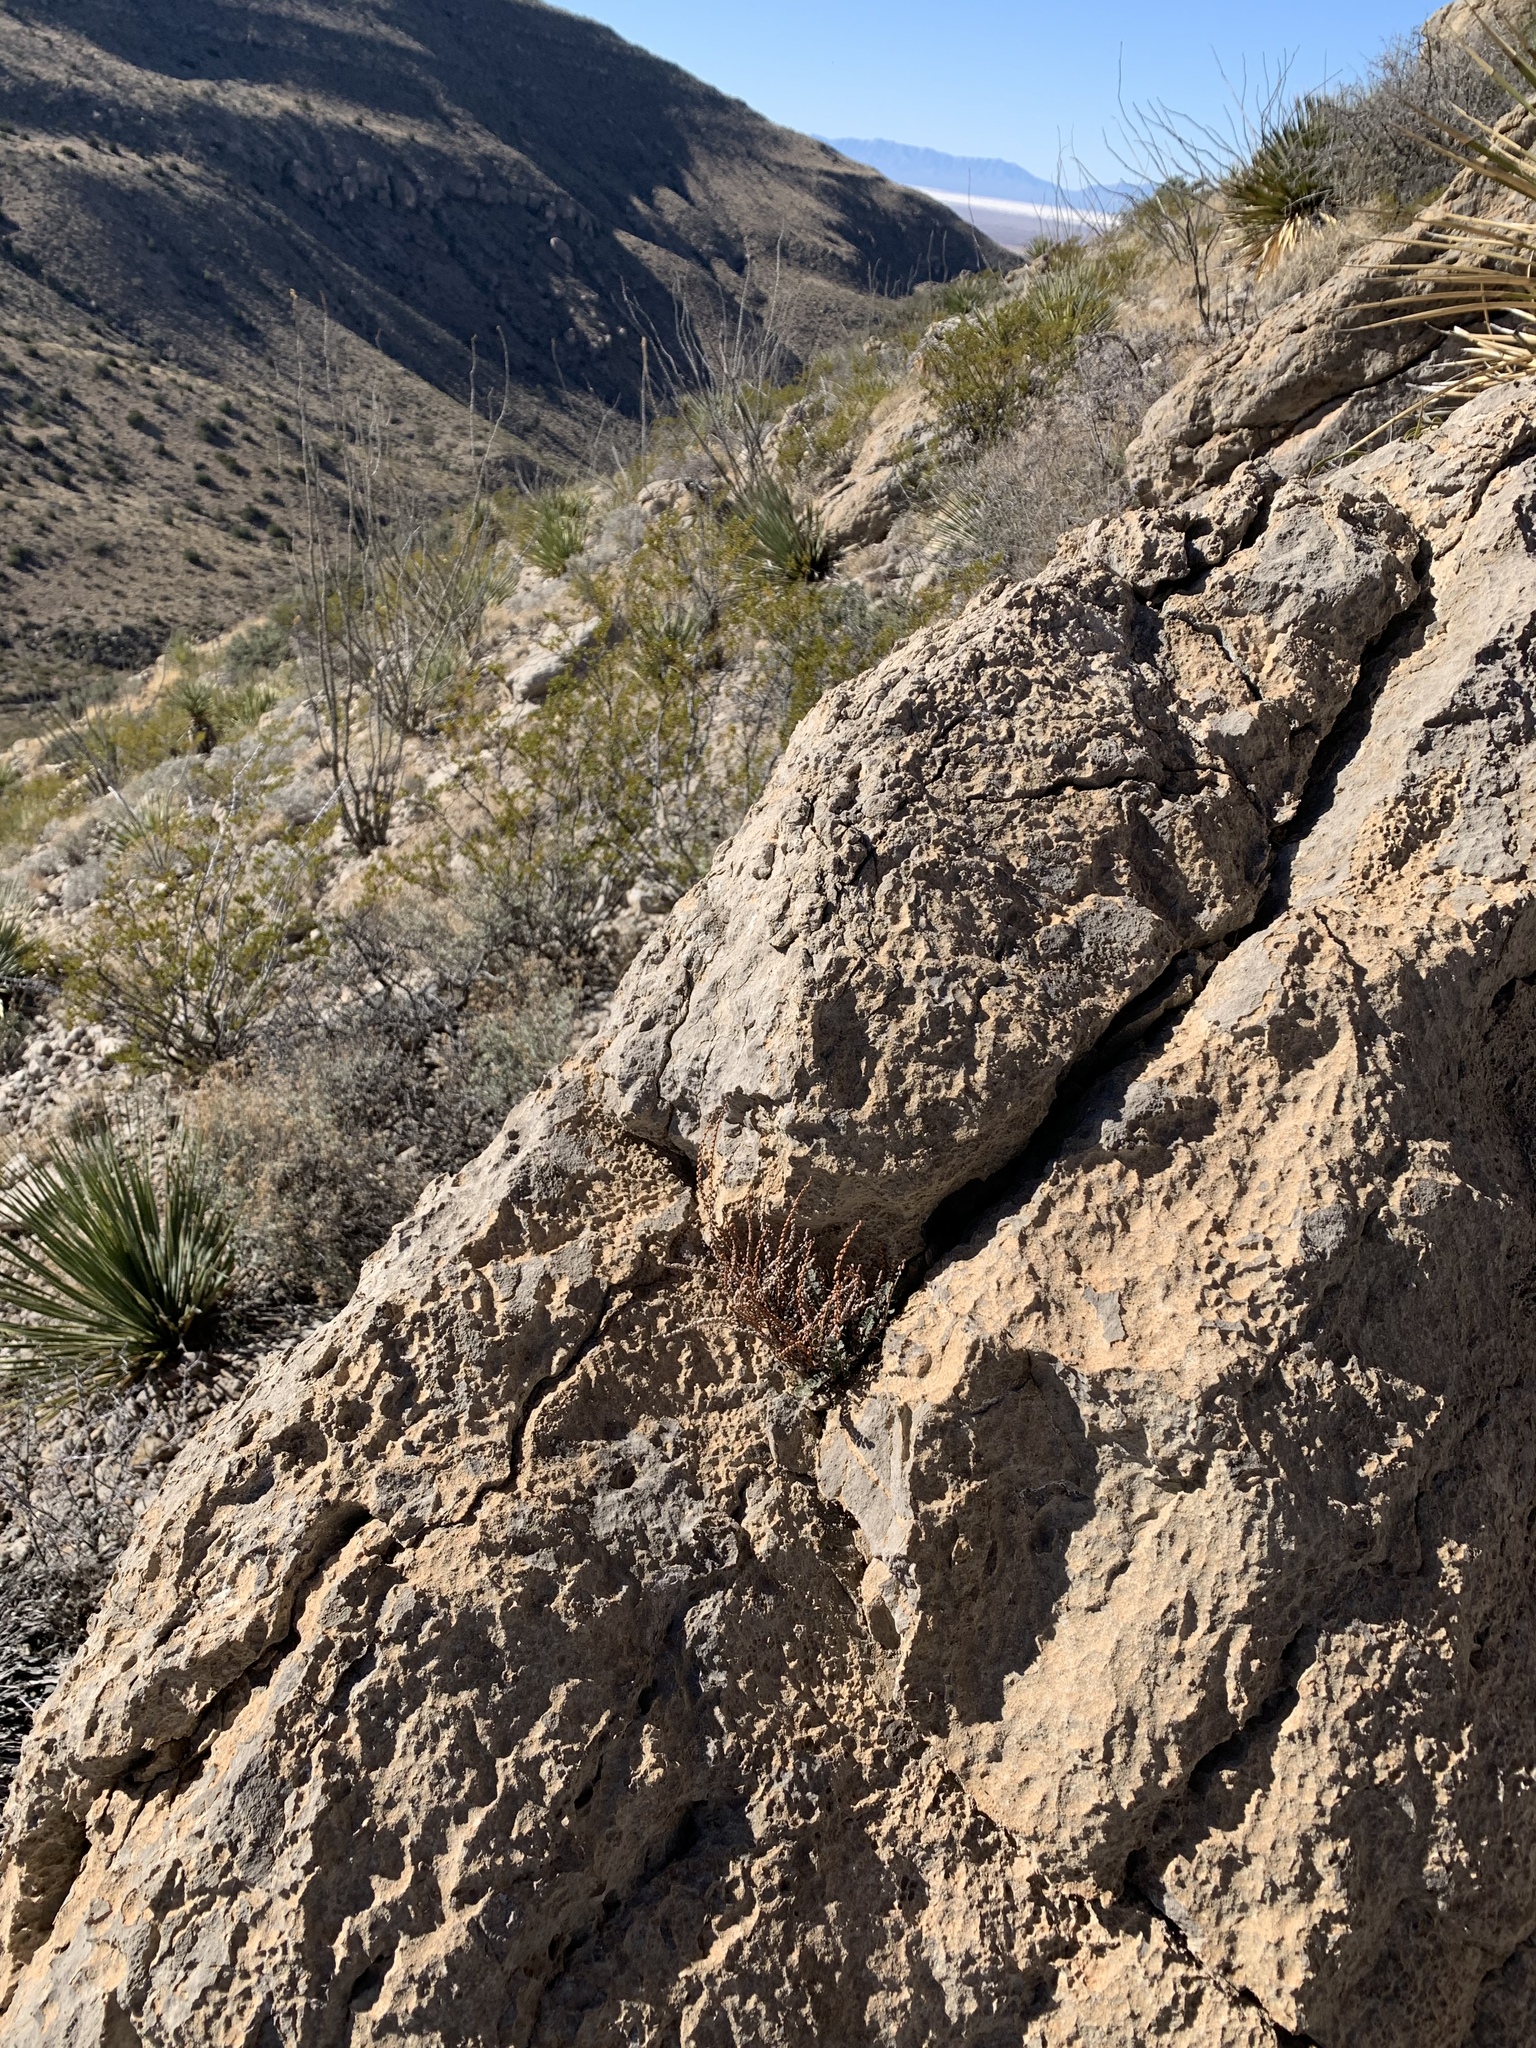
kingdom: Plantae
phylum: Tracheophyta
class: Polypodiopsida
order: Polypodiales
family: Pteridaceae
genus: Astrolepis
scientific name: Astrolepis cochisensis
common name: Scaly cloak fern
